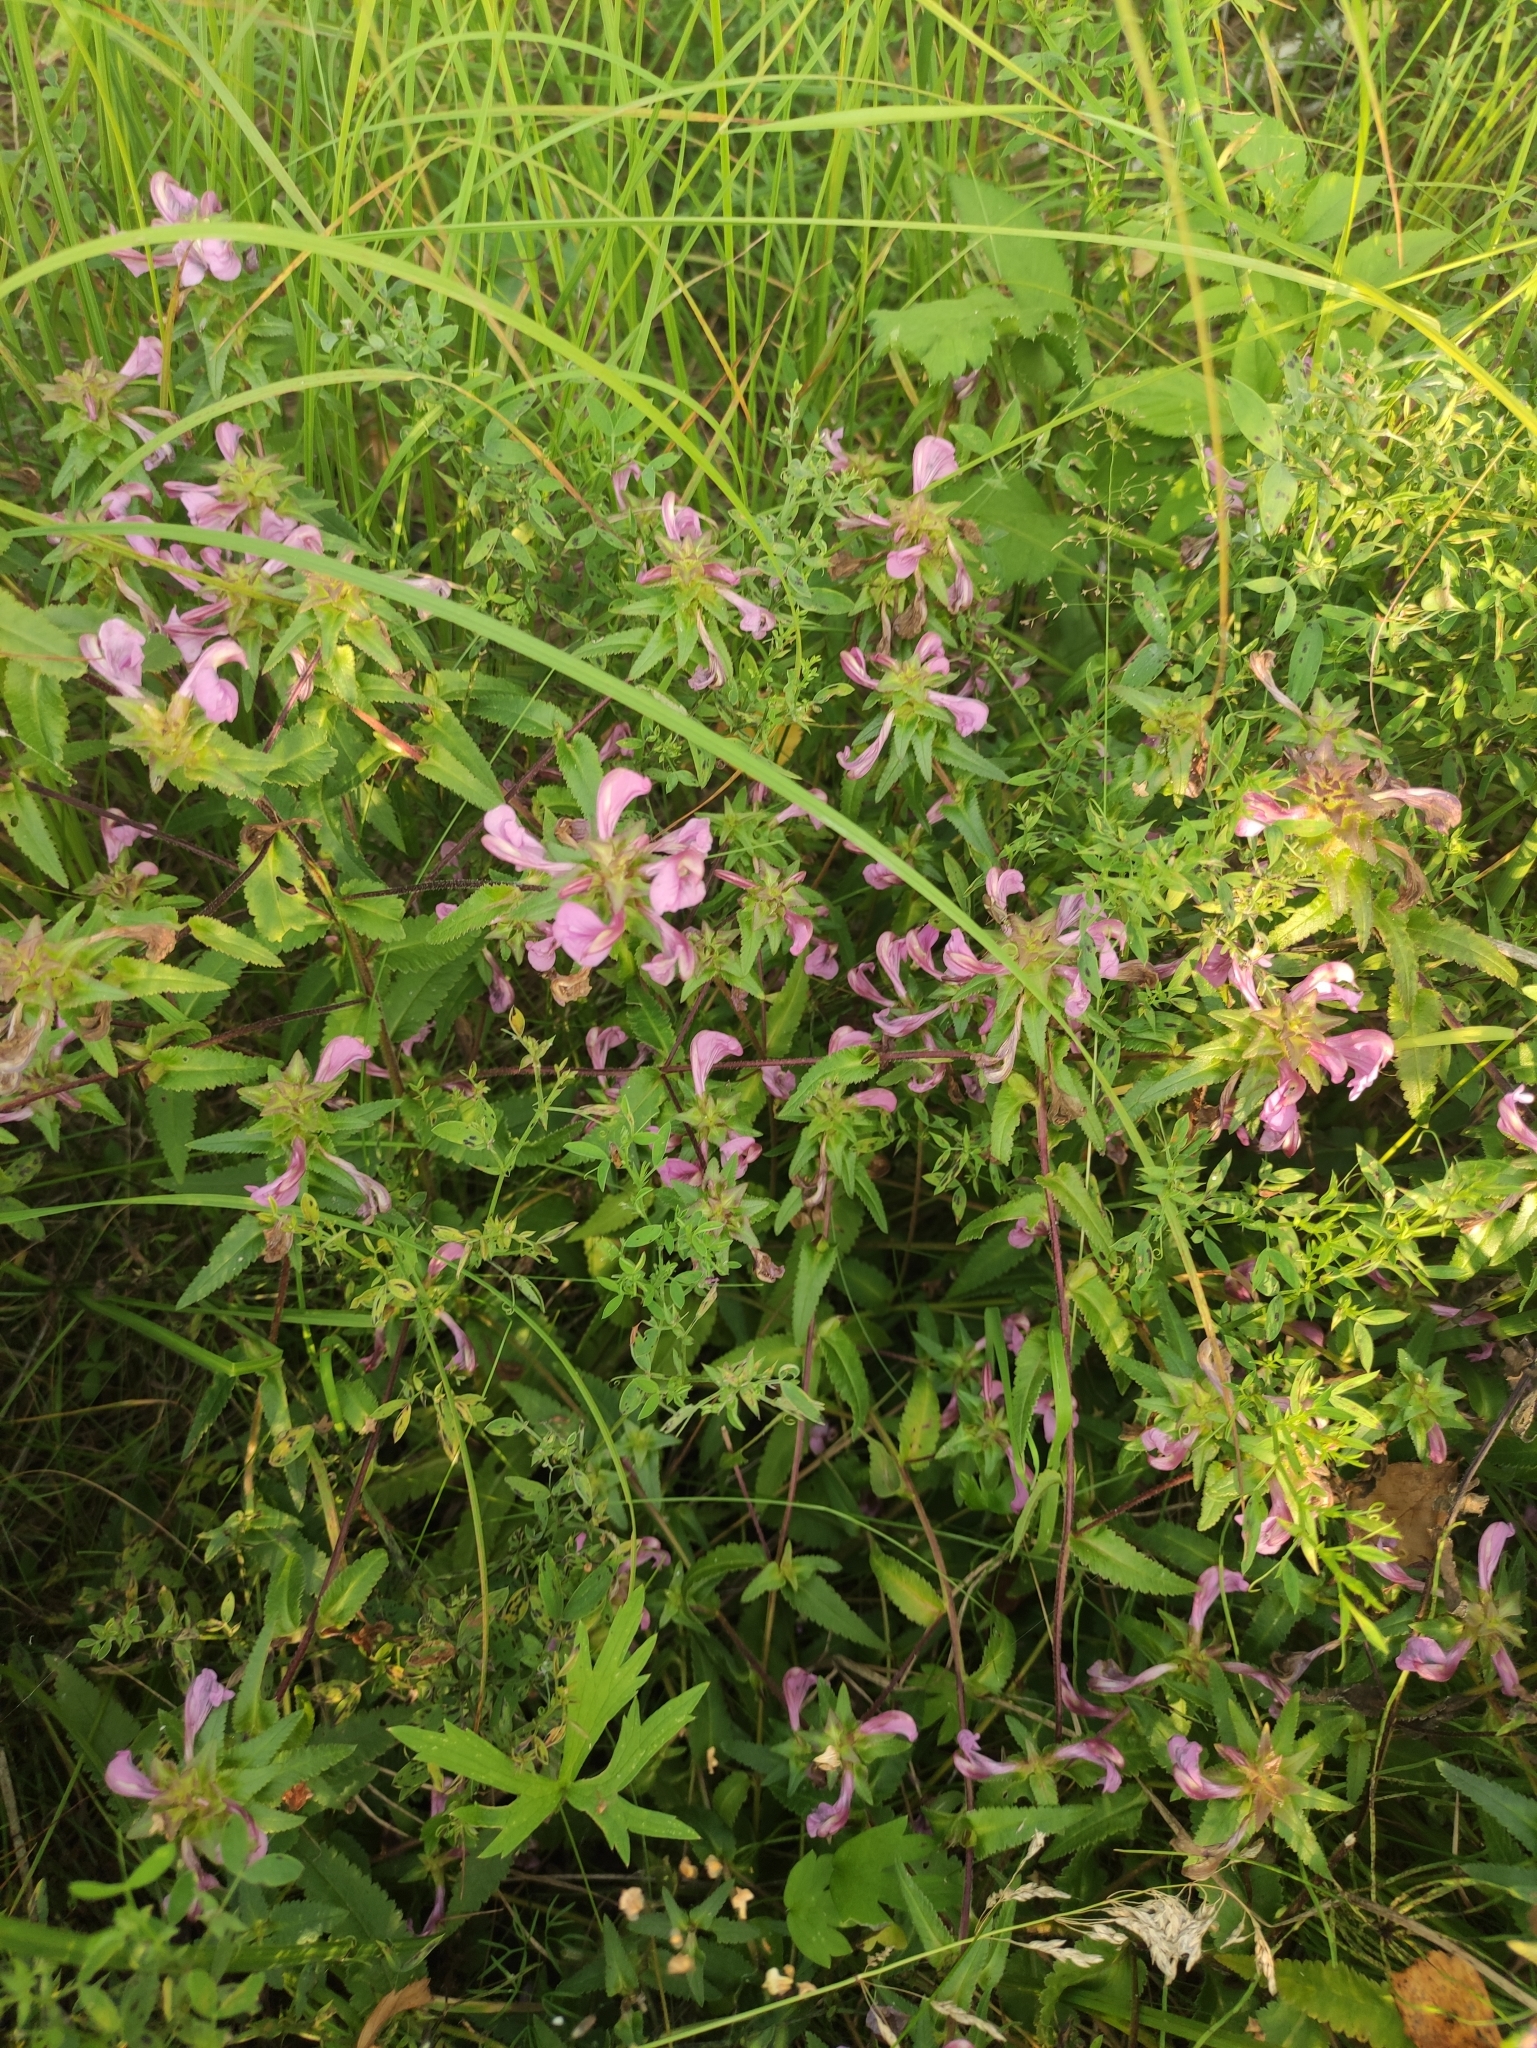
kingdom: Plantae
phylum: Tracheophyta
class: Magnoliopsida
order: Lamiales
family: Orobanchaceae
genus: Pedicularis
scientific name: Pedicularis resupinata
